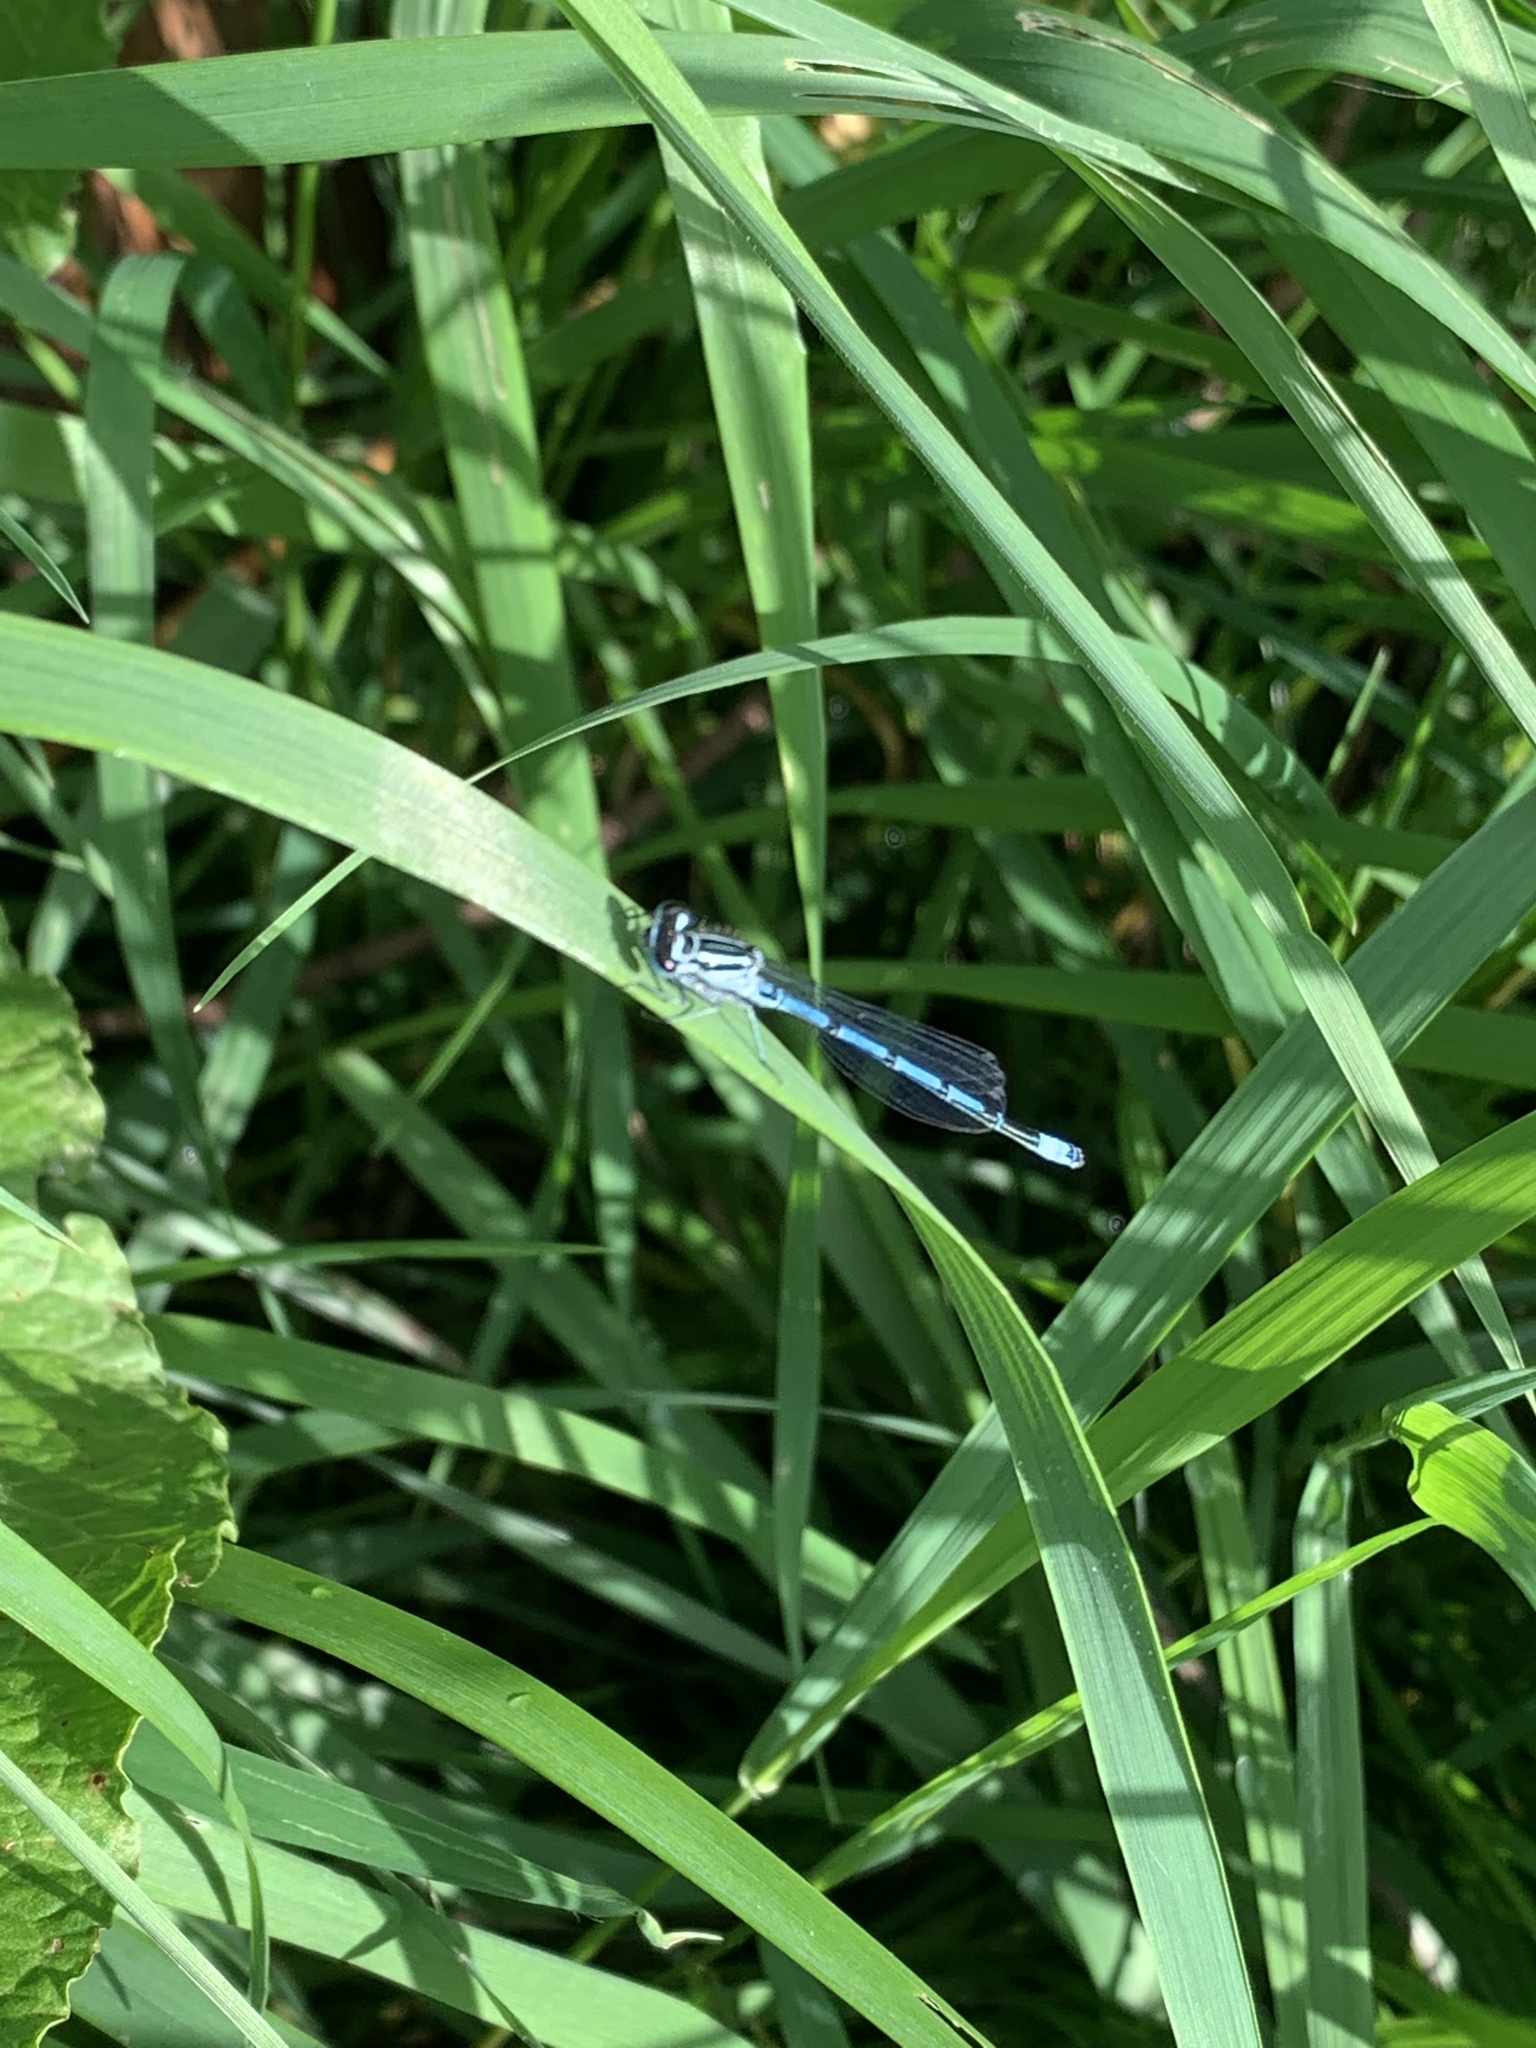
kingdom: Animalia
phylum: Arthropoda
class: Insecta
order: Odonata
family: Coenagrionidae
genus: Coenagrion
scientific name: Coenagrion puella
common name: Azure damselfly
